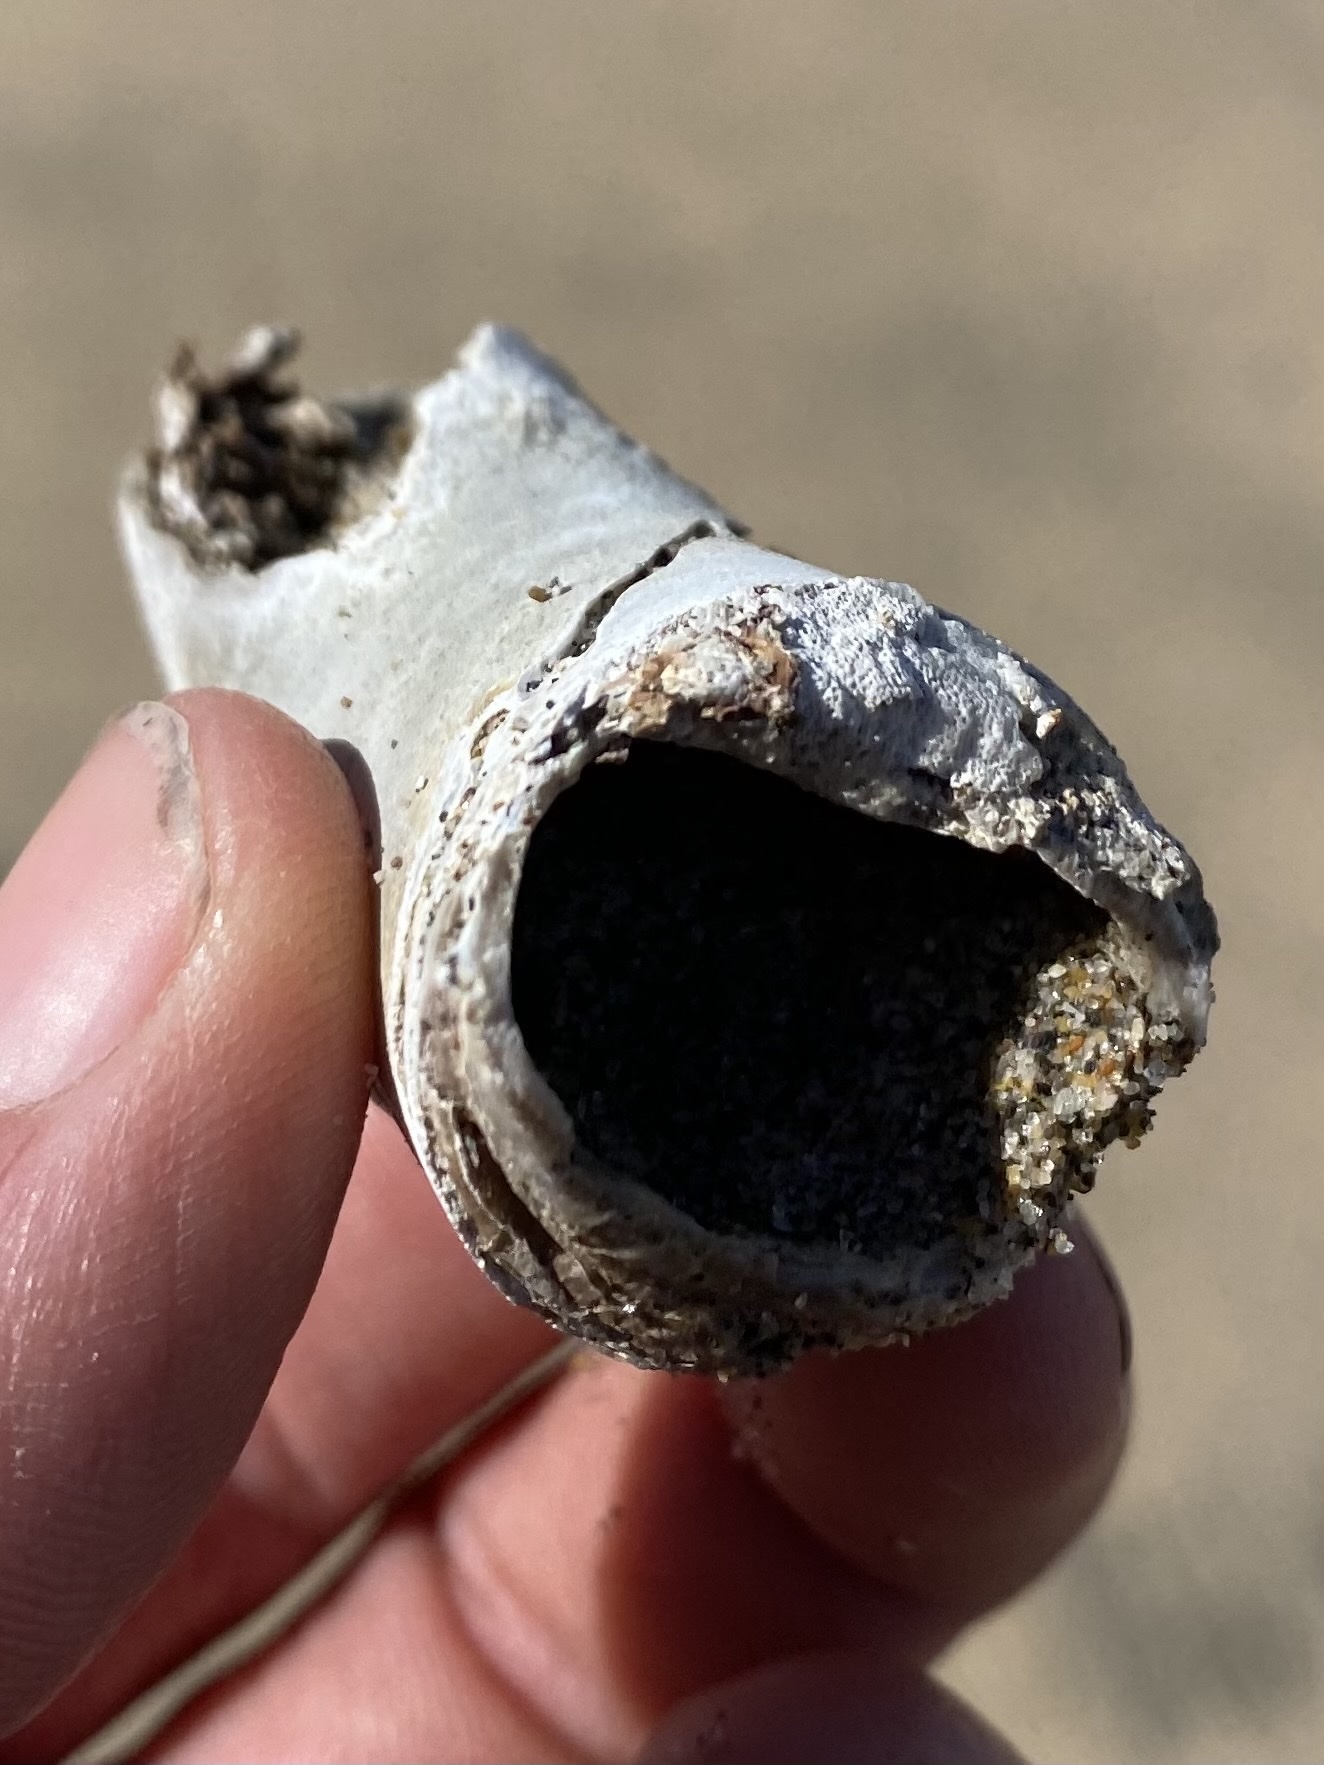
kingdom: Animalia
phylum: Mollusca
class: Bivalvia
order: Myida
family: Pholadidae
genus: Parapholas
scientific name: Parapholas californica
